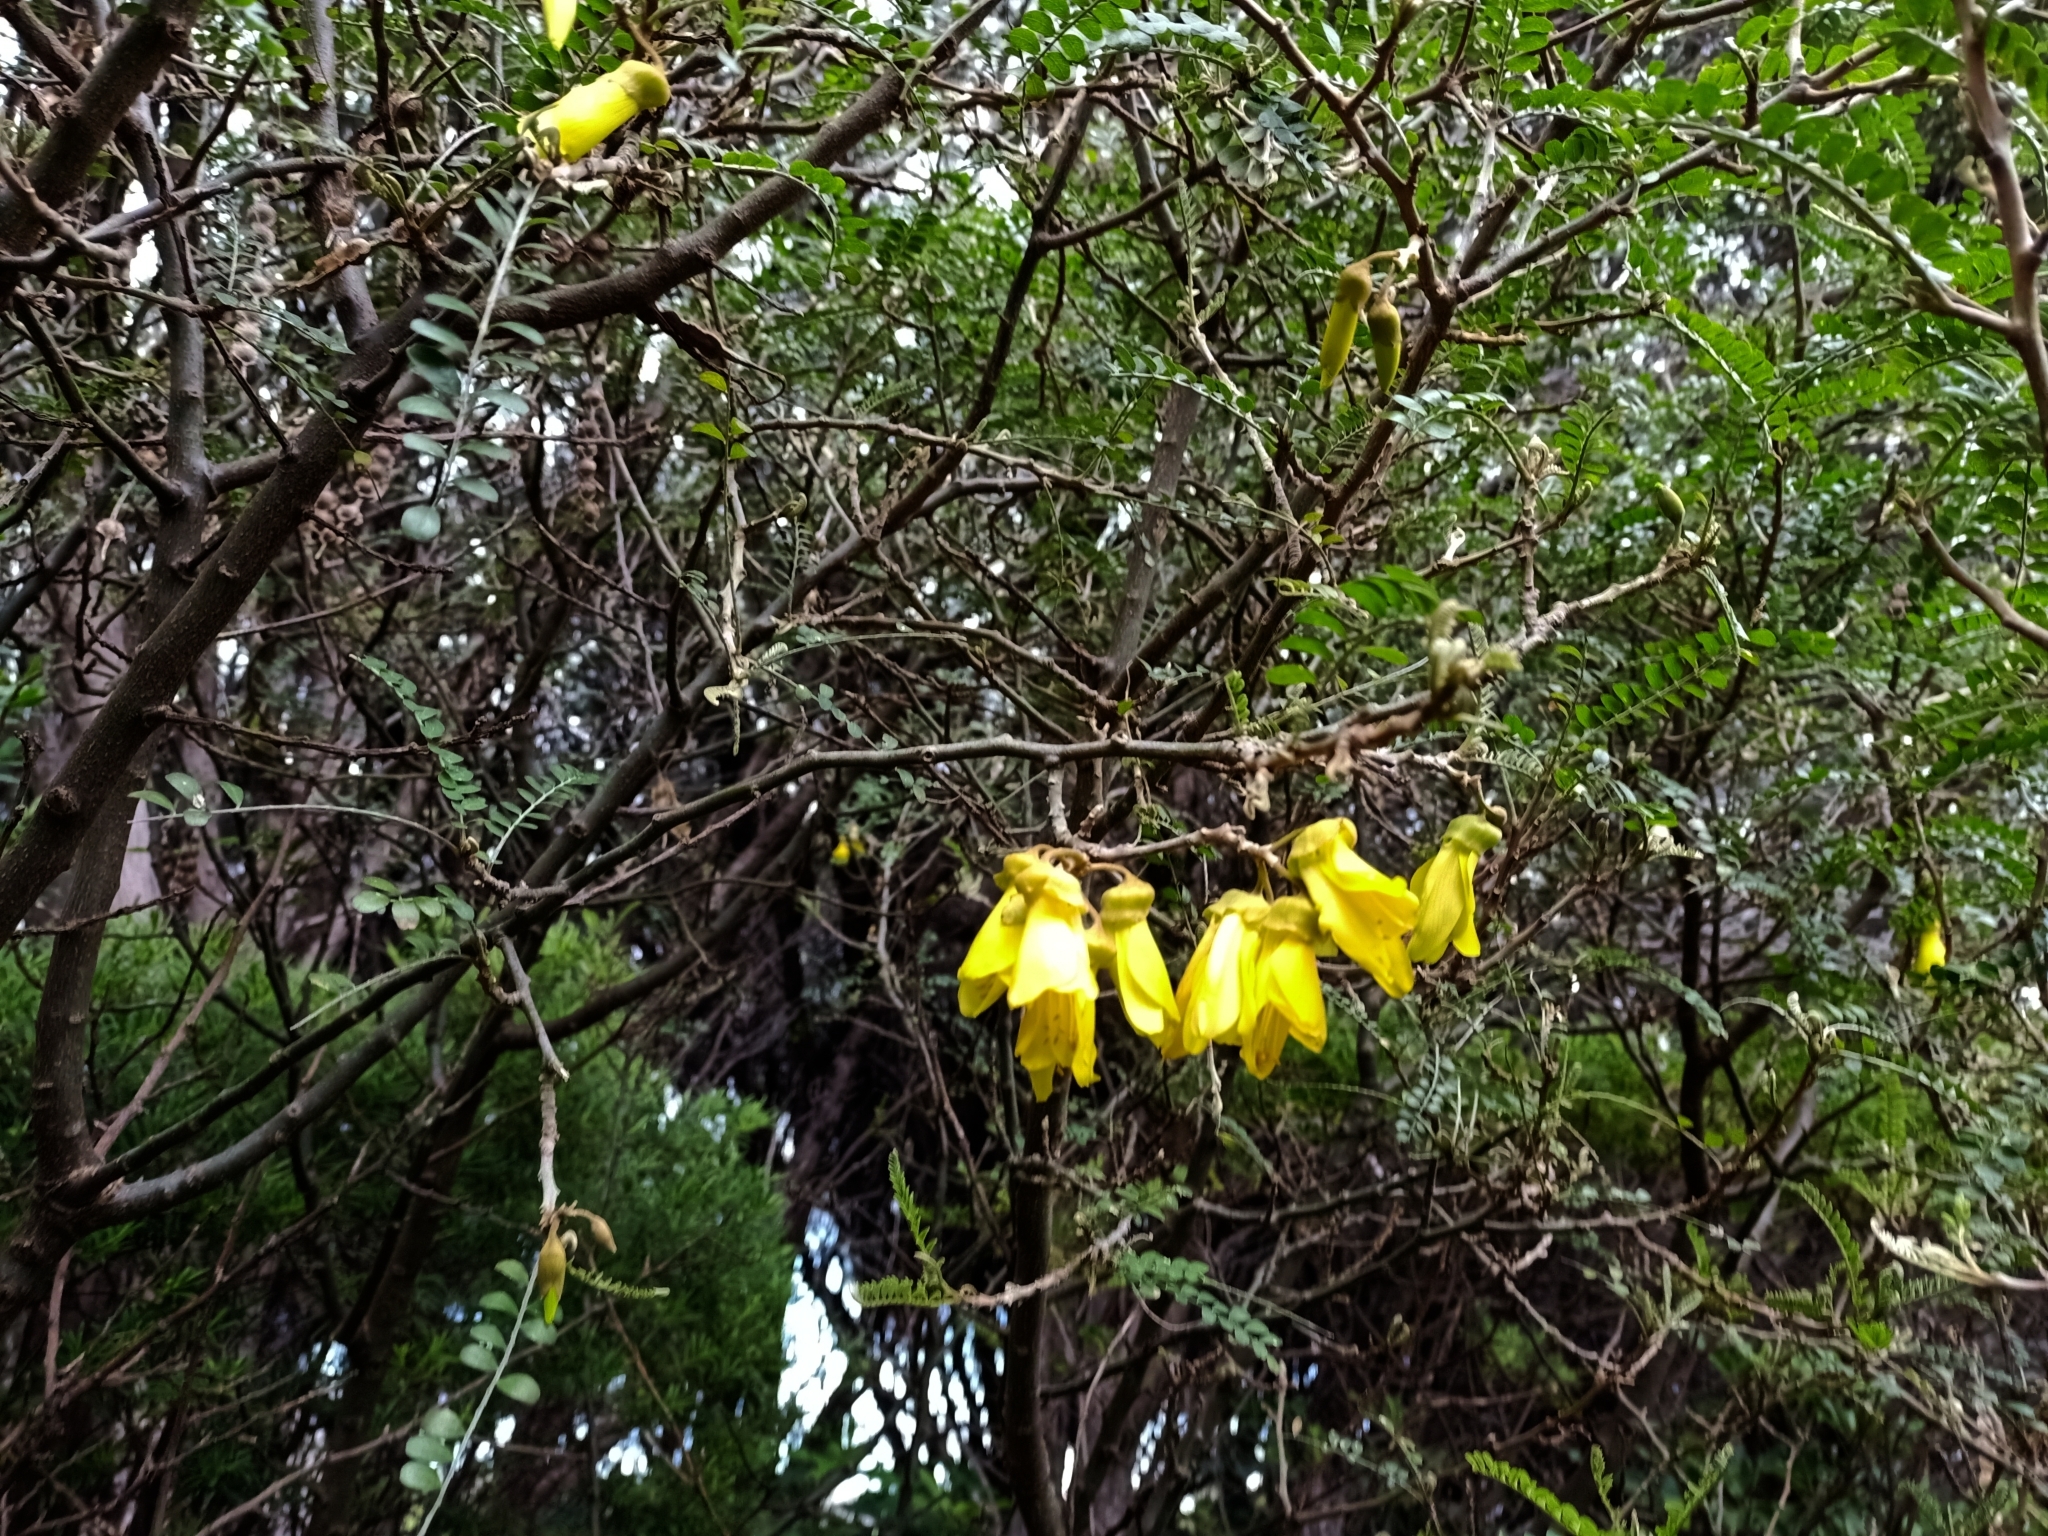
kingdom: Plantae
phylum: Tracheophyta
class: Magnoliopsida
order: Fabales
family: Fabaceae
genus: Sophora
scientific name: Sophora molloyi
